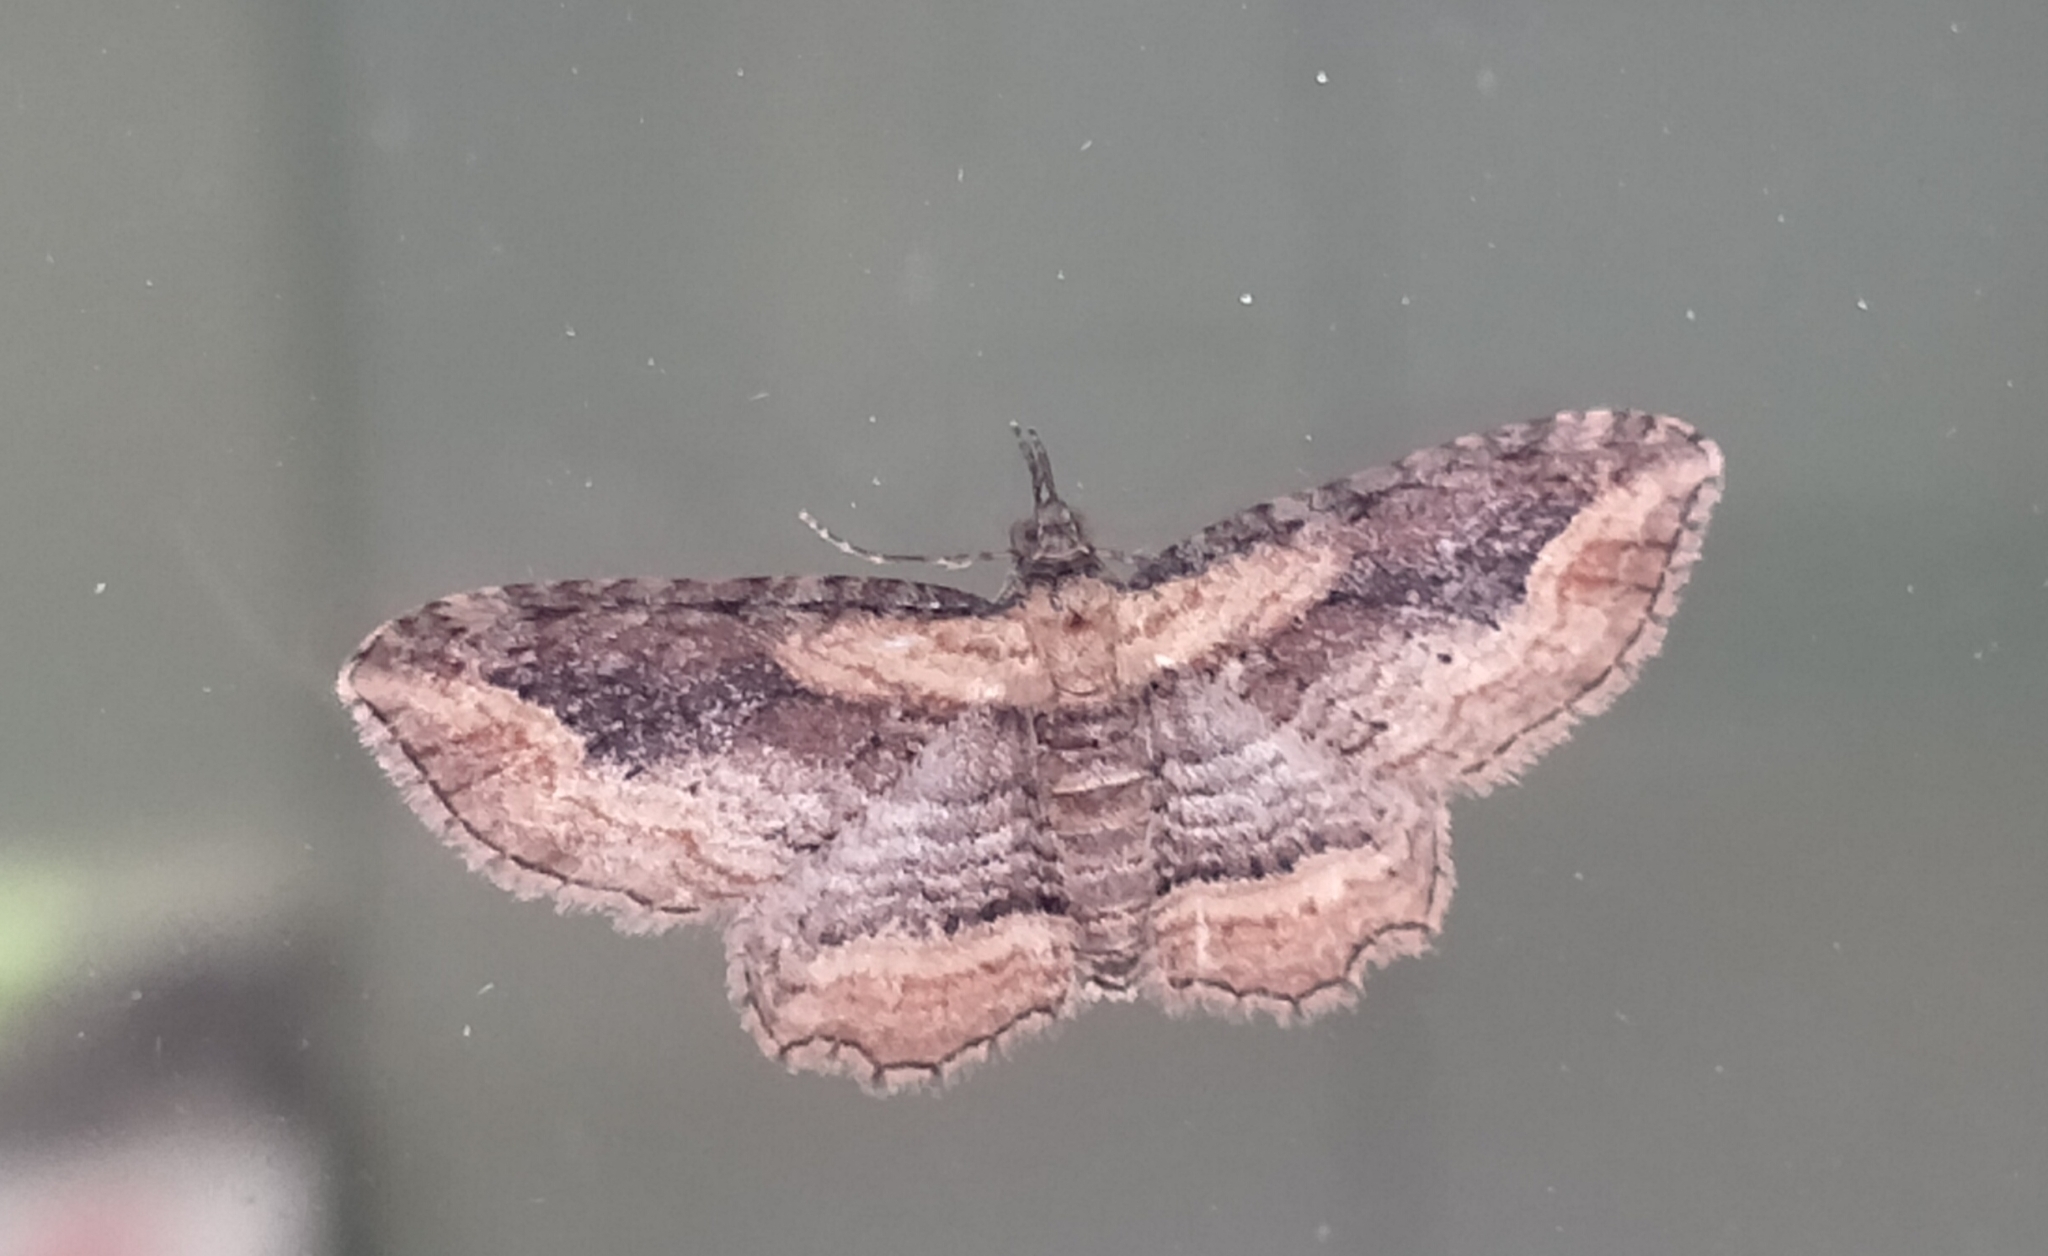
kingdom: Animalia
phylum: Arthropoda
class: Insecta
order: Lepidoptera
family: Geometridae
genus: Chloroclystis
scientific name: Chloroclystis filata
